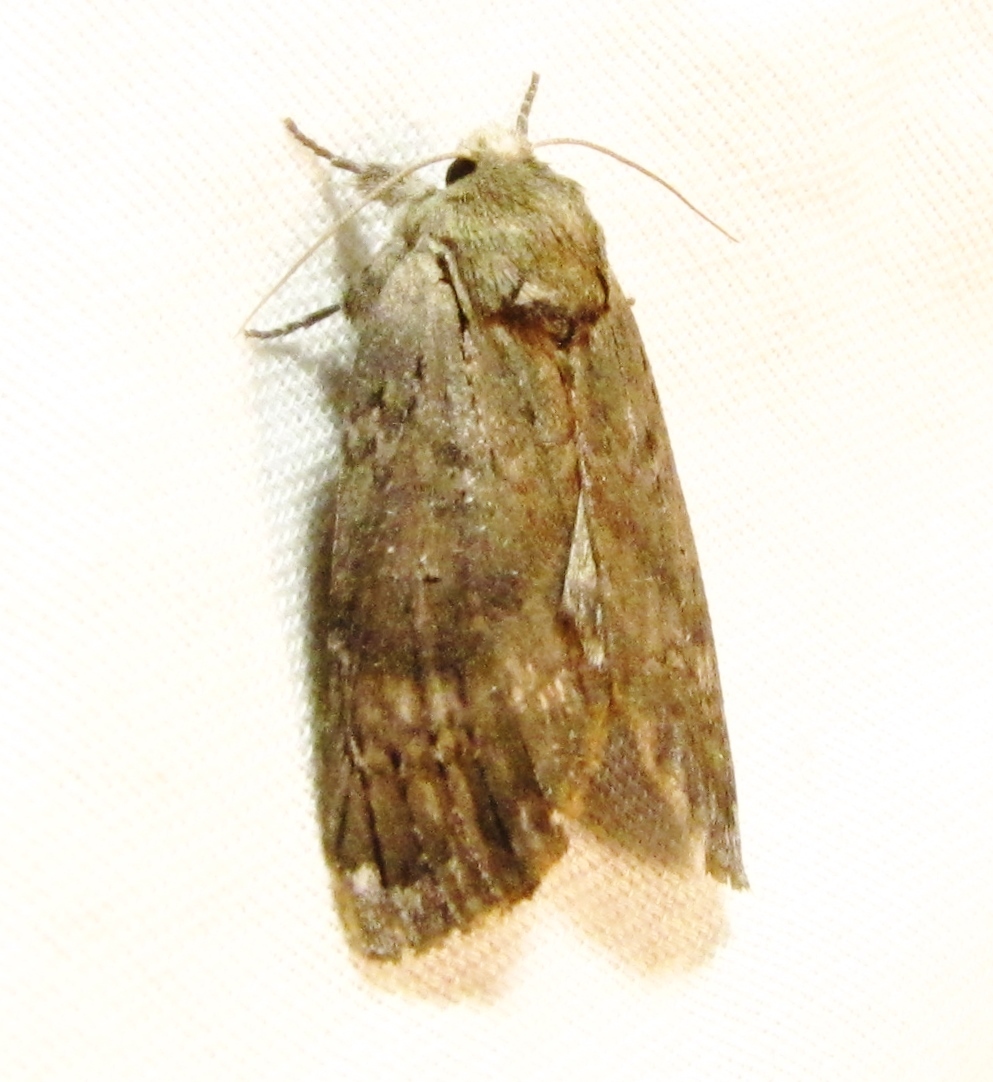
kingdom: Animalia
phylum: Arthropoda
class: Insecta
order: Lepidoptera
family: Notodontidae
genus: Schizura
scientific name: Schizura
